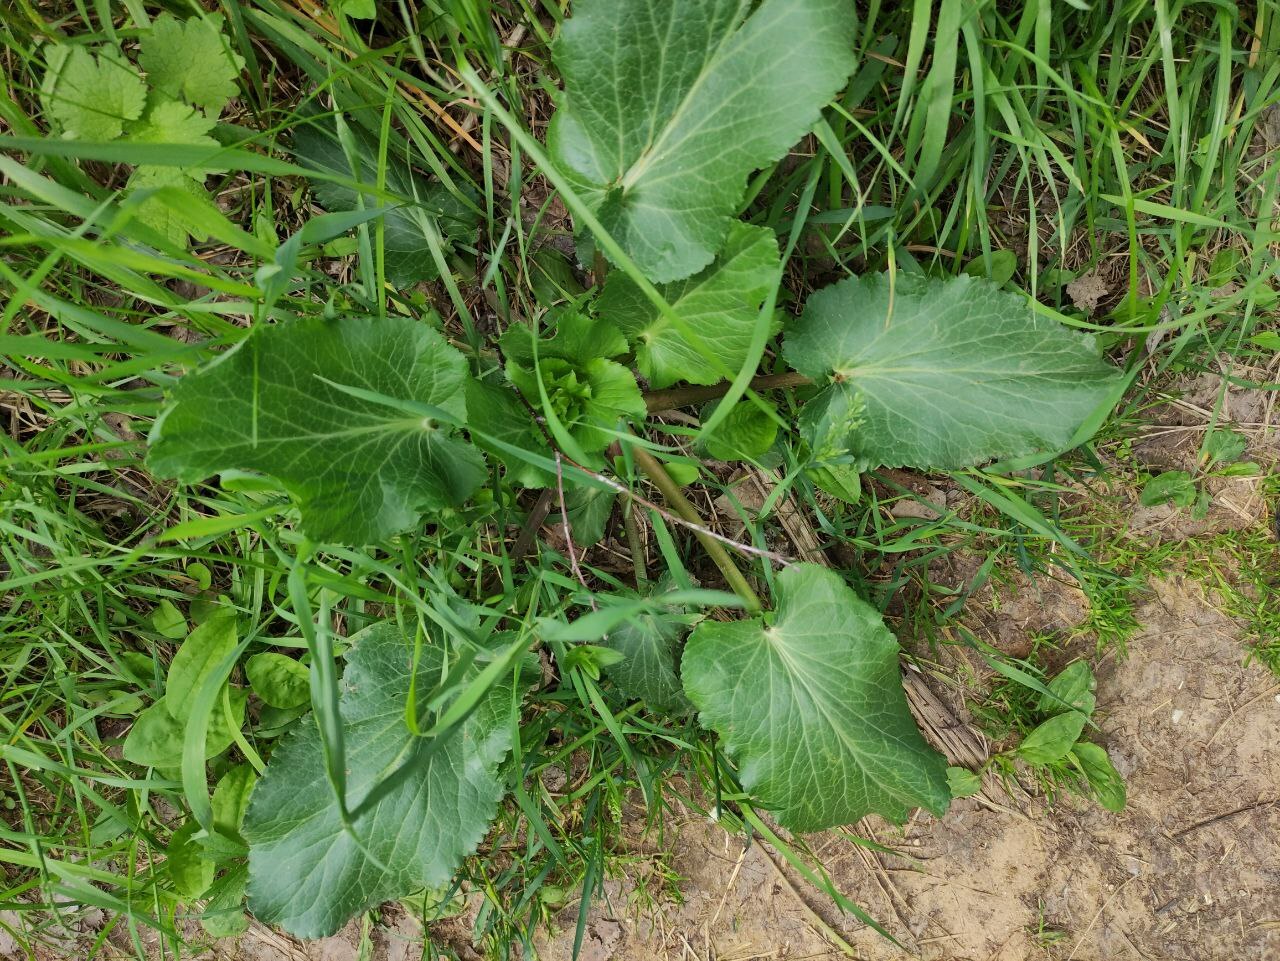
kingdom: Plantae
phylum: Tracheophyta
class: Magnoliopsida
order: Apiales
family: Apiaceae
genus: Eryngium
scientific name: Eryngium planum
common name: Blue eryngo
